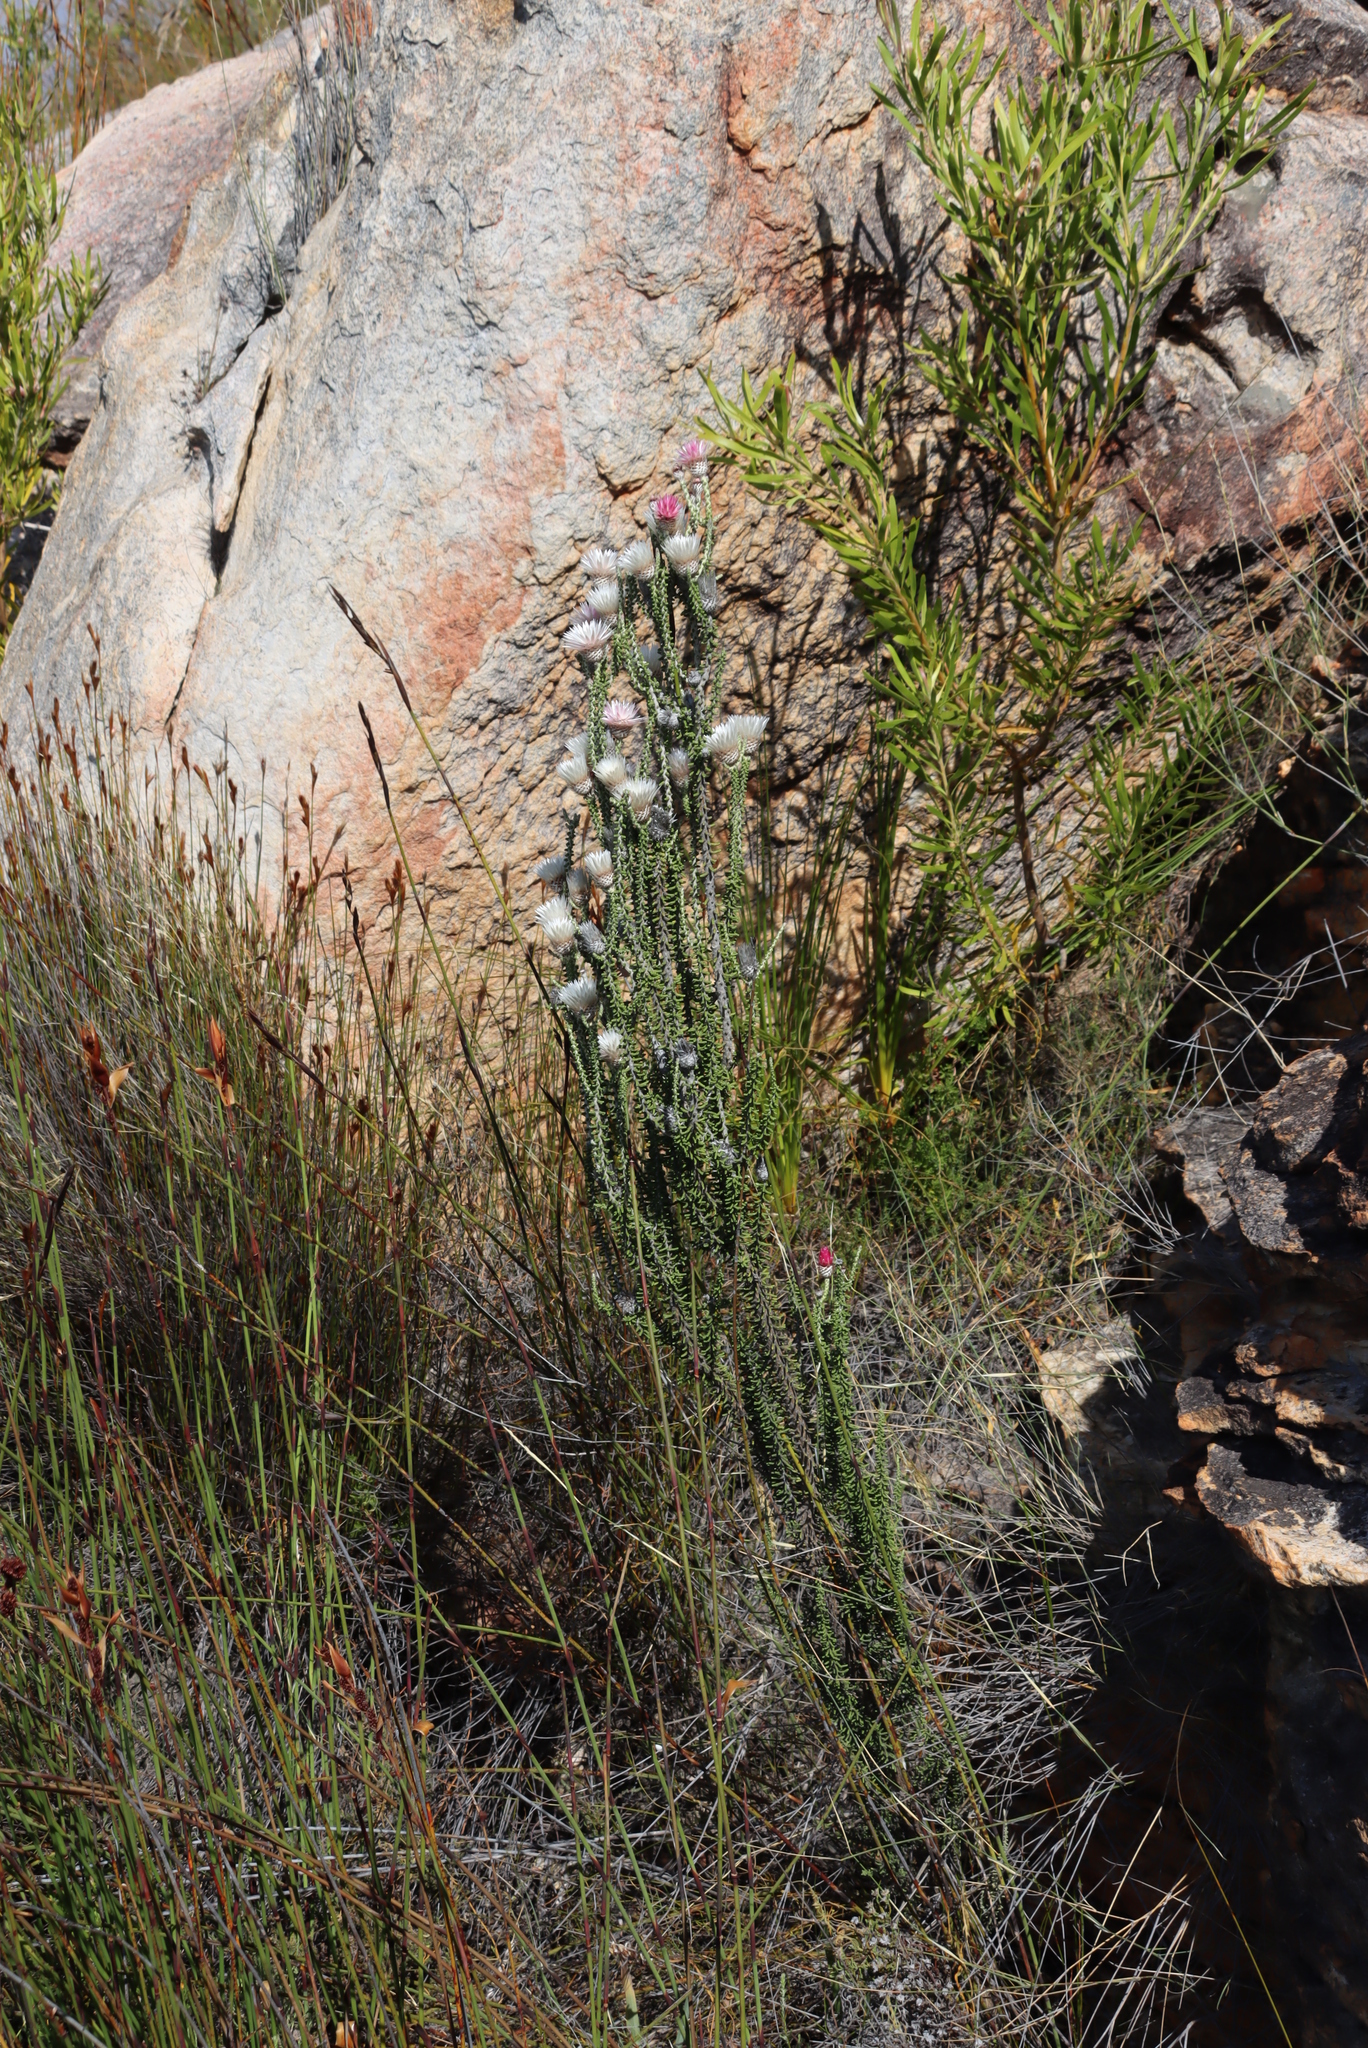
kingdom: Plantae
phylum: Tracheophyta
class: Magnoliopsida
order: Asterales
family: Asteraceae
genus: Phaenocoma
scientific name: Phaenocoma prolifera
